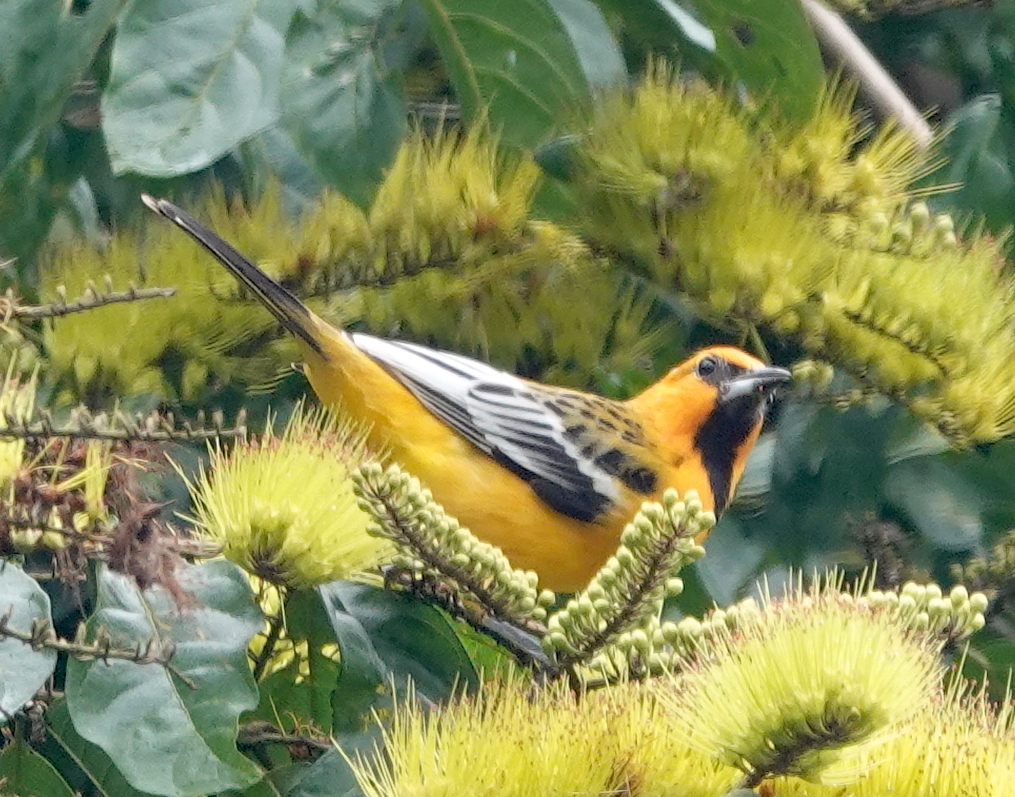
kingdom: Animalia
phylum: Chordata
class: Aves
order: Passeriformes
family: Icteridae
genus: Icterus
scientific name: Icterus pustulatus
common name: Streak-backed oriole
